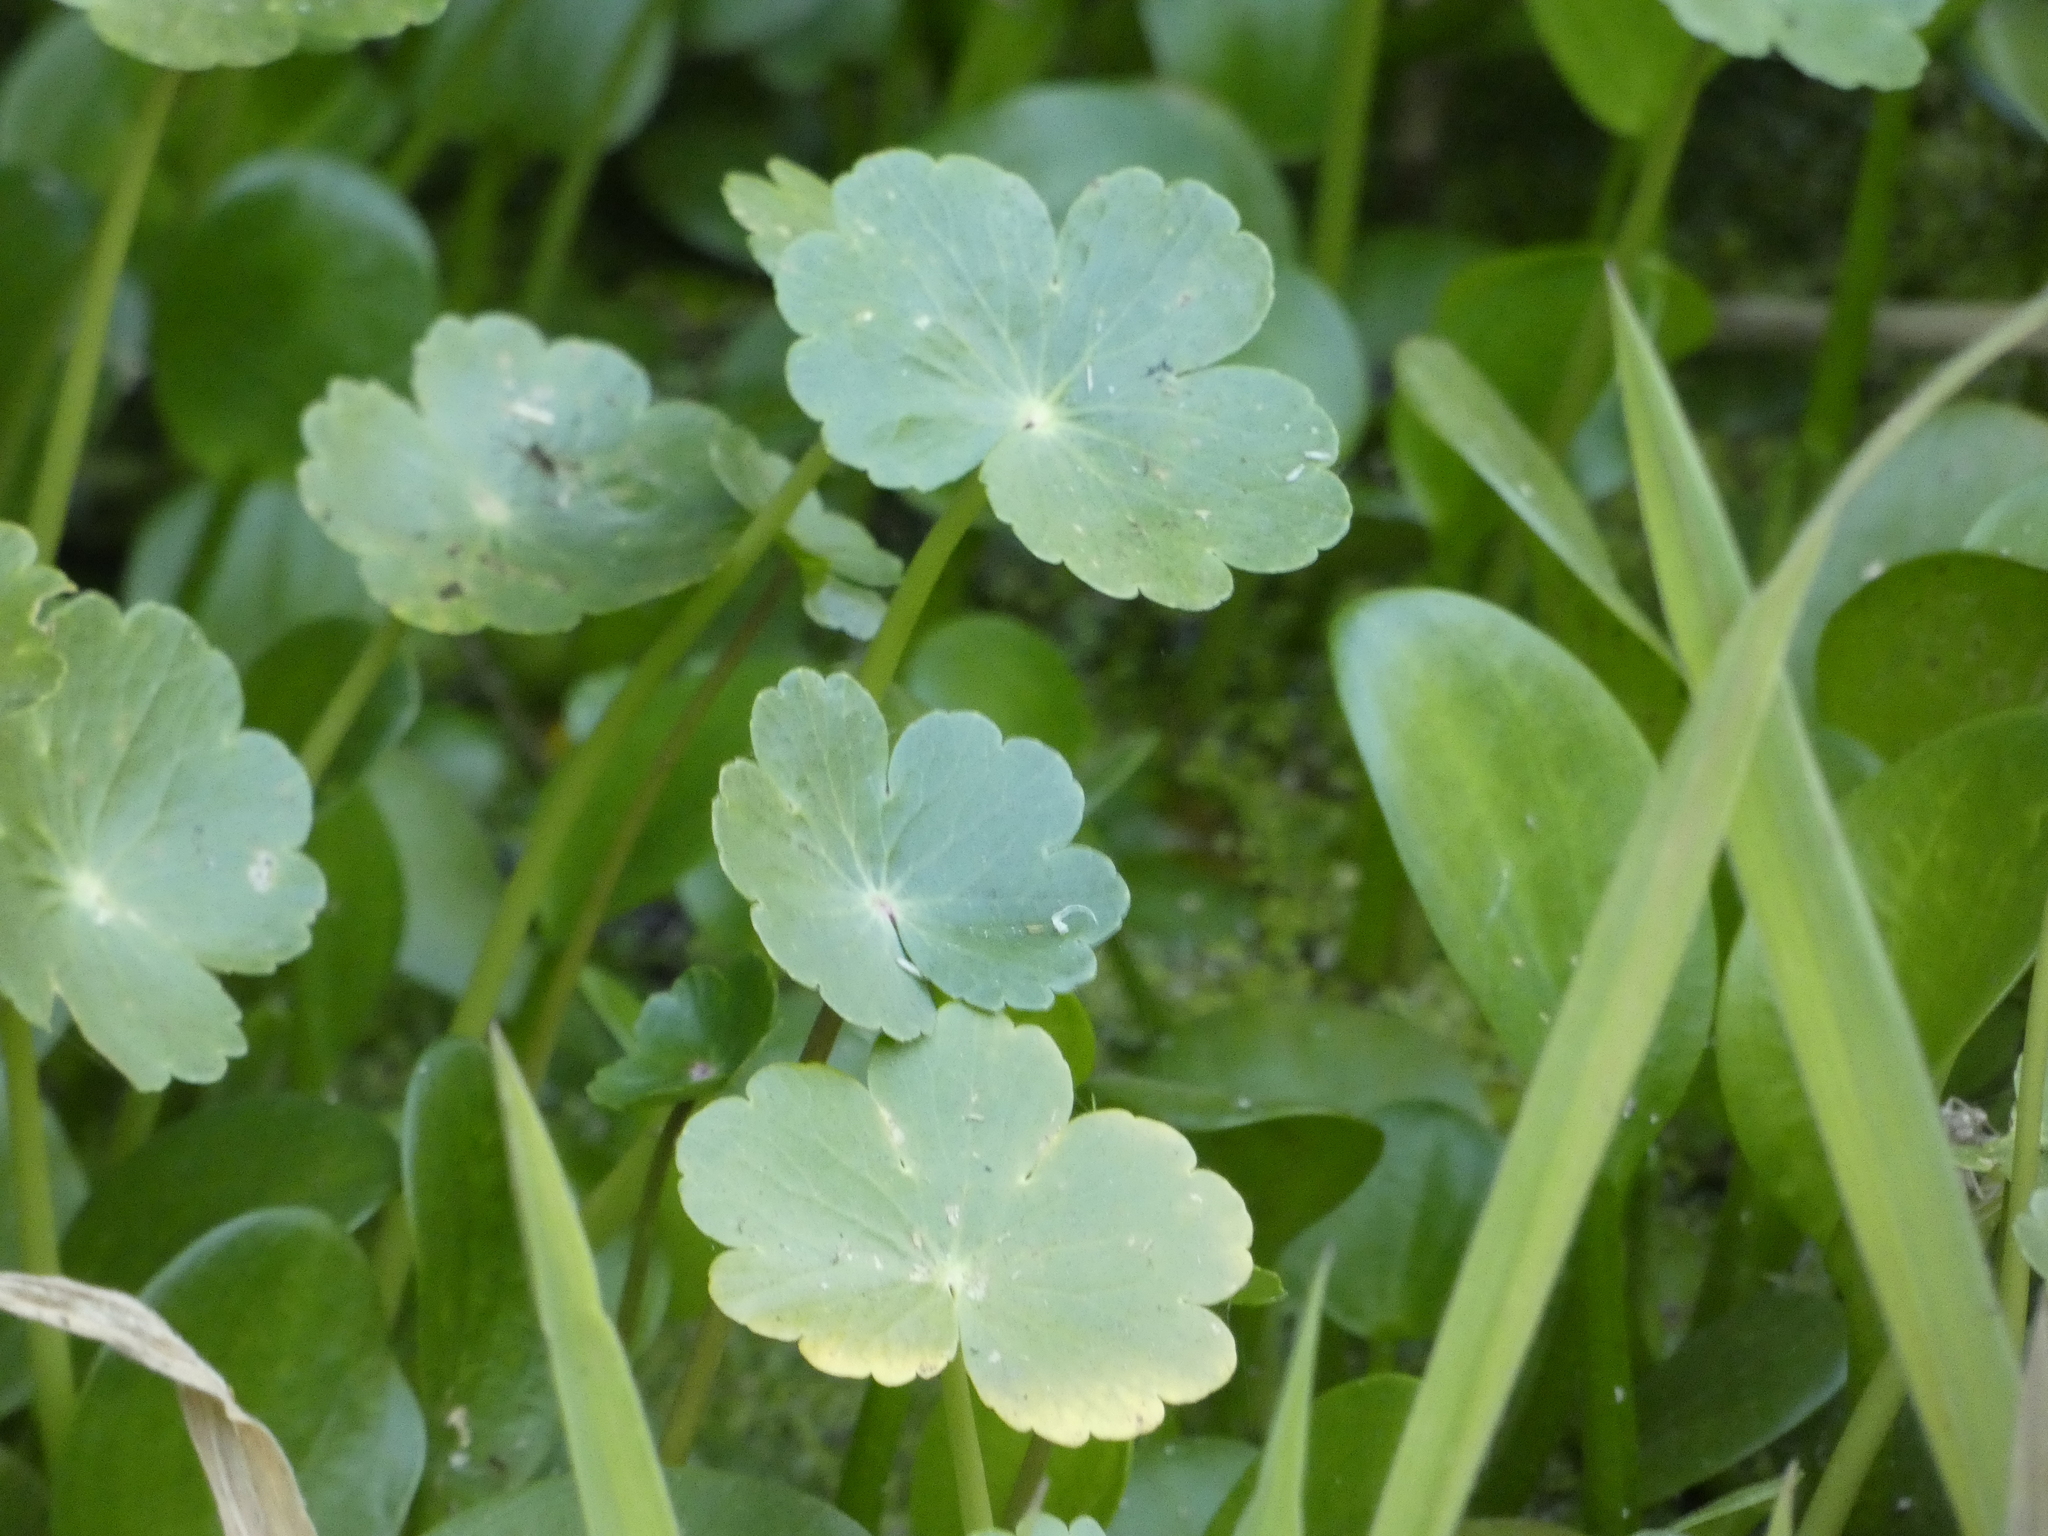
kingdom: Plantae
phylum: Tracheophyta
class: Magnoliopsida
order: Apiales
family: Araliaceae
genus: Hydrocotyle
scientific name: Hydrocotyle ranunculoides
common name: Floating pennywort
